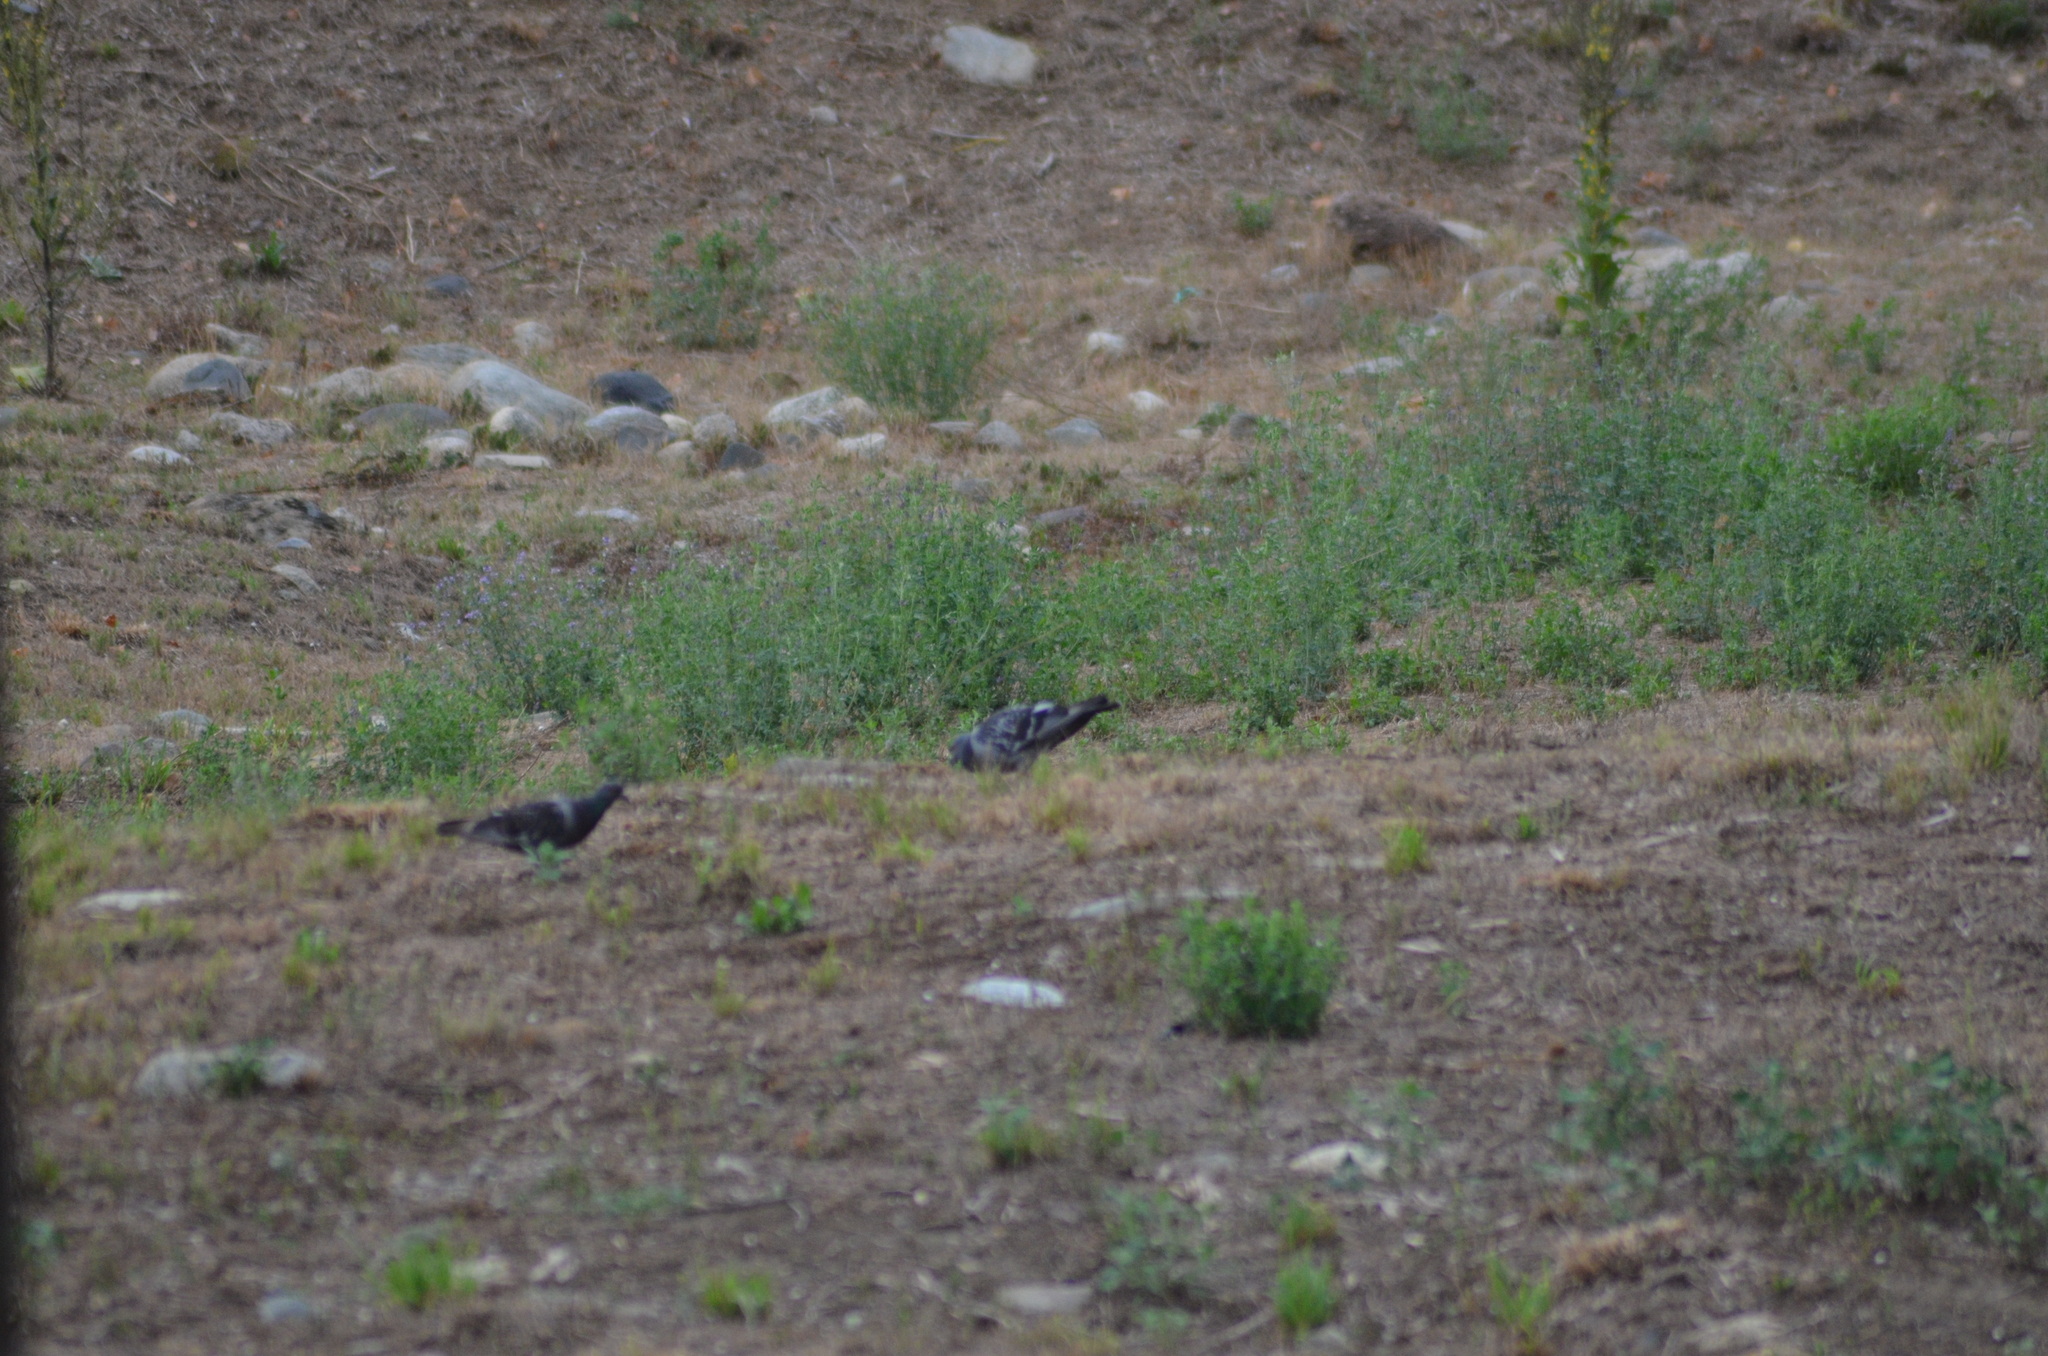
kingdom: Animalia
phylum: Chordata
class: Aves
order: Columbiformes
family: Columbidae
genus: Columba
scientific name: Columba livia
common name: Rock pigeon
